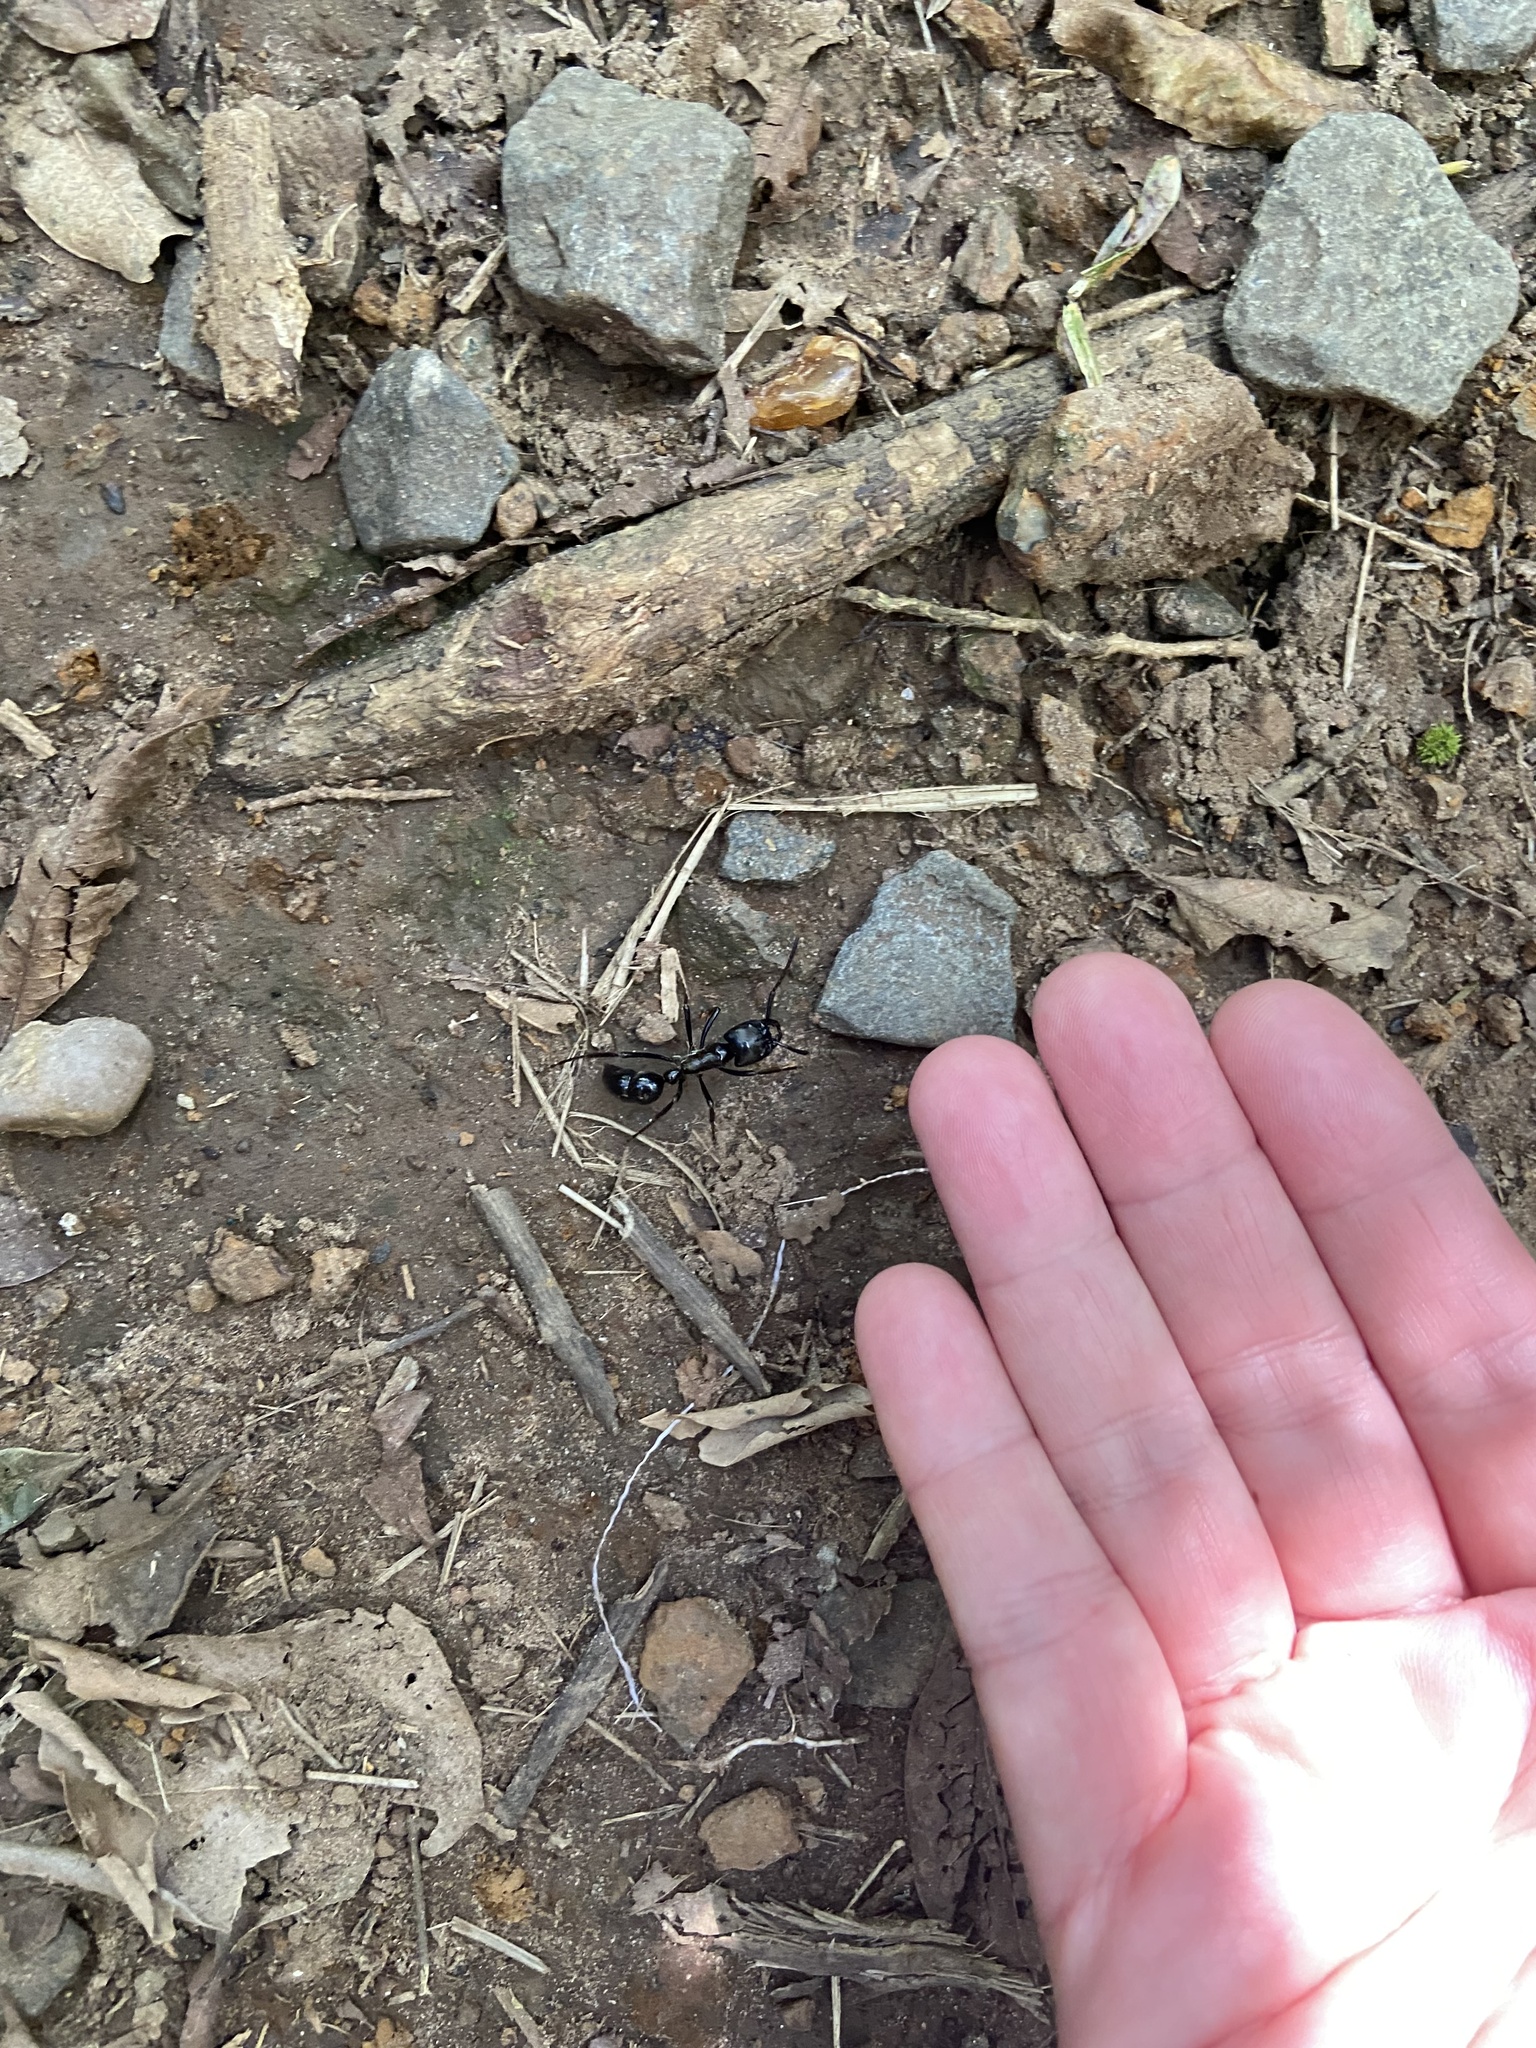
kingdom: Animalia
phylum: Arthropoda
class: Insecta
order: Hymenoptera
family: Formicidae
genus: Dinoponera
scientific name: Dinoponera
